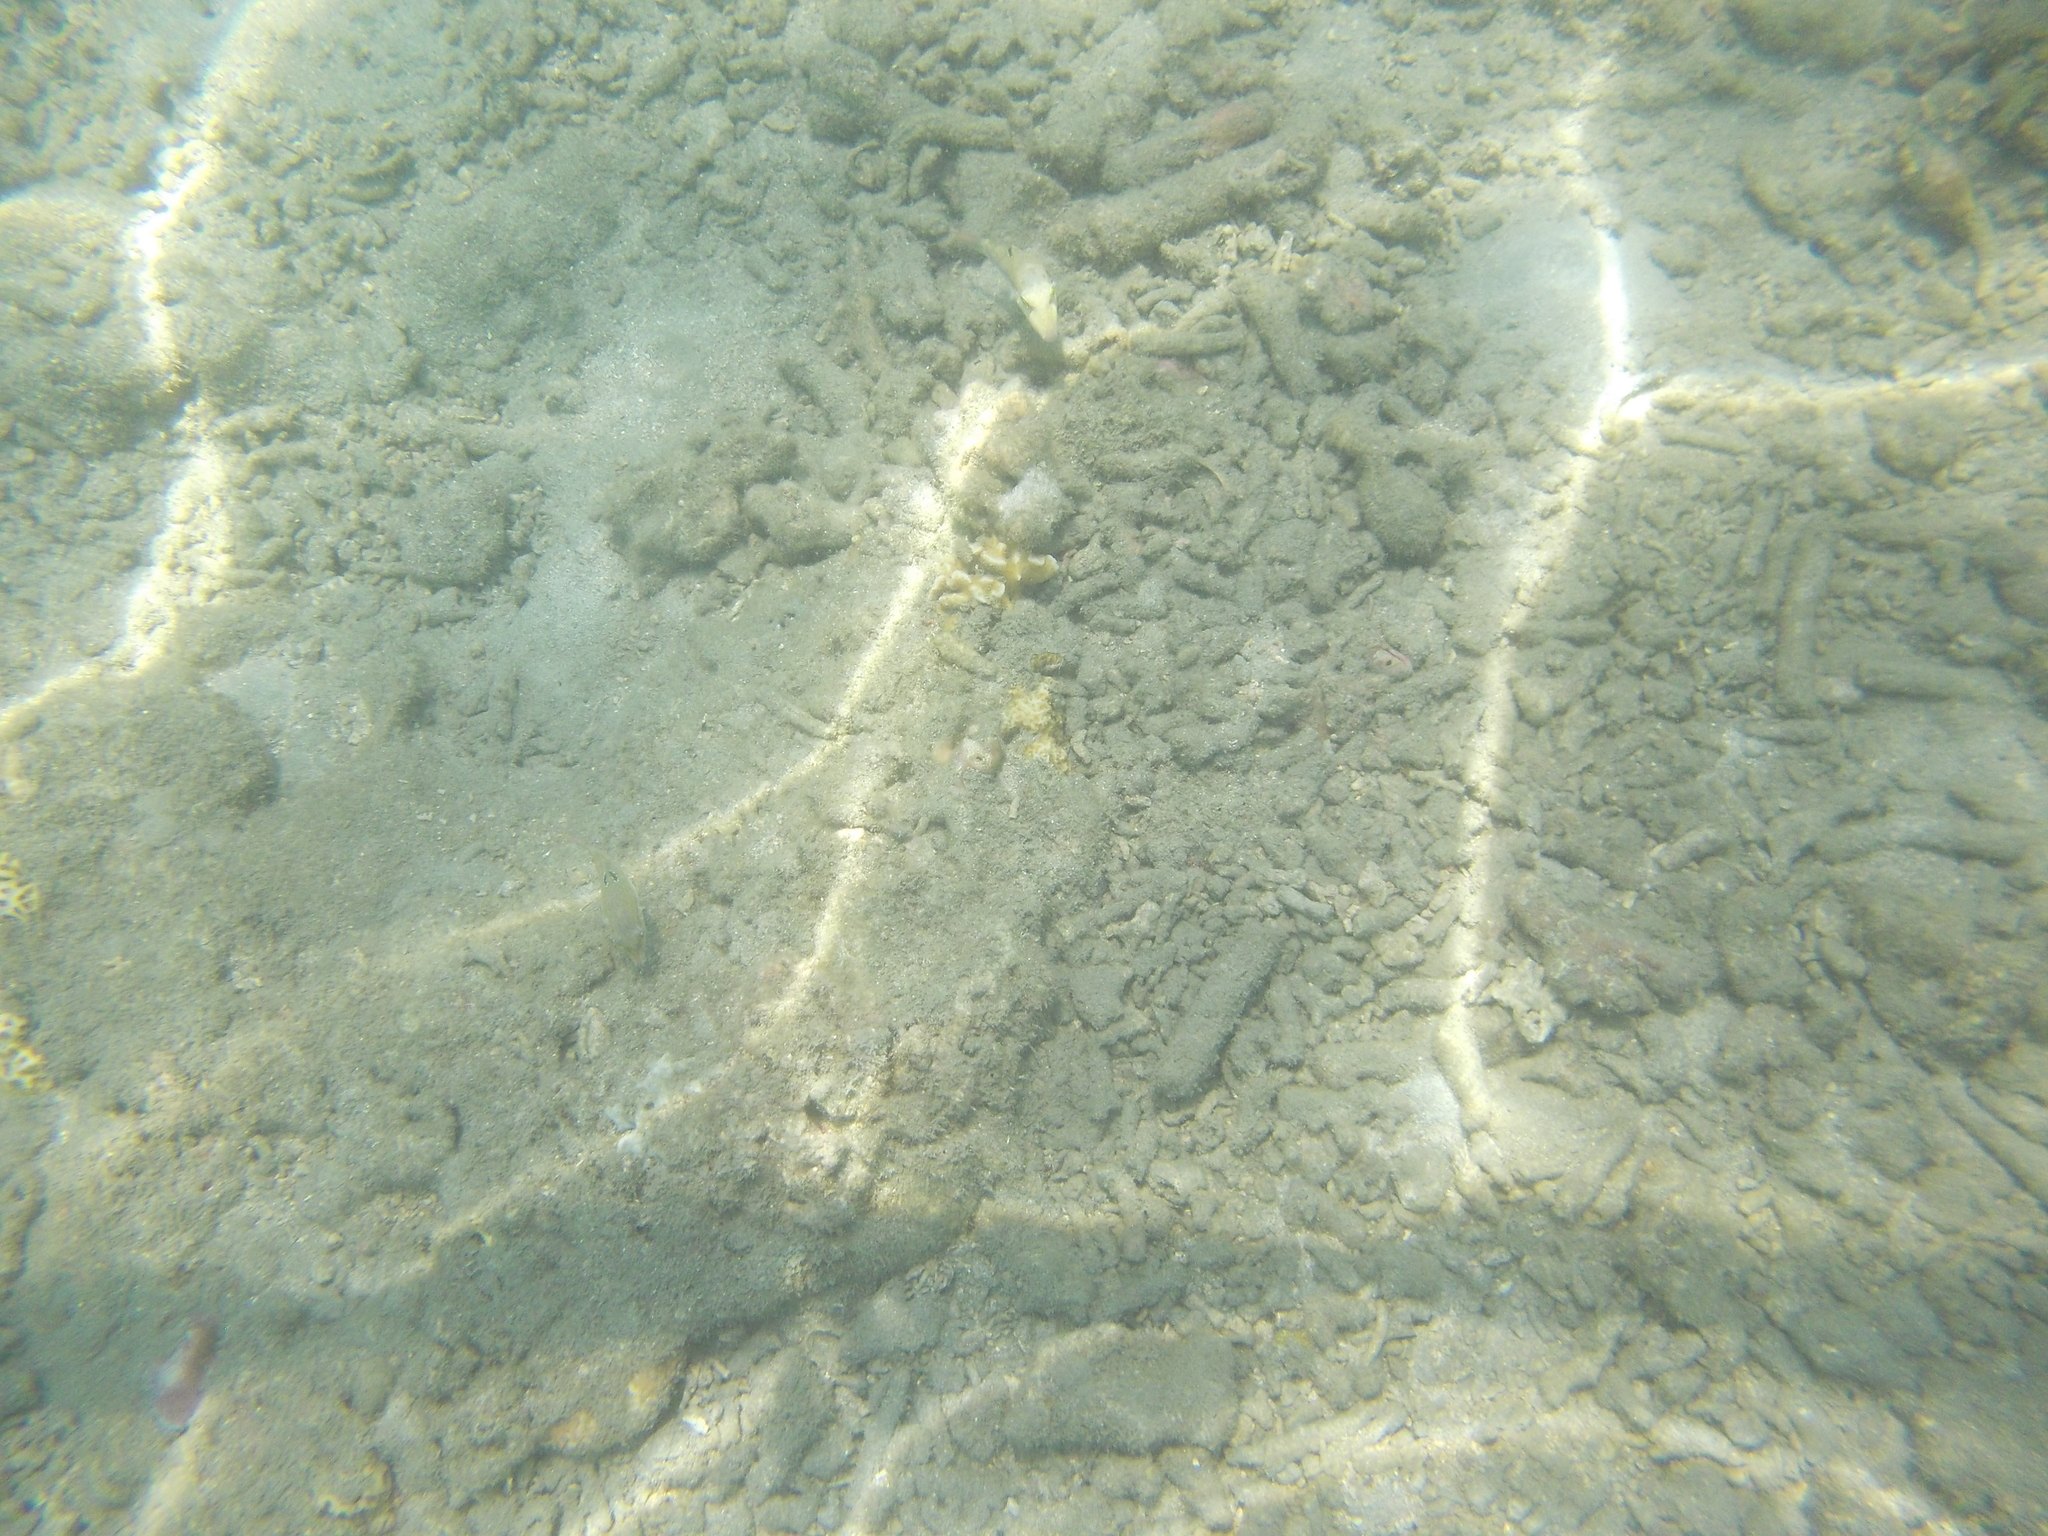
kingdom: Animalia
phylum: Chordata
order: Tetraodontiformes
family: Tetraodontidae
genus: Canthigaster
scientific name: Canthigaster compressa
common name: Compressed toby
